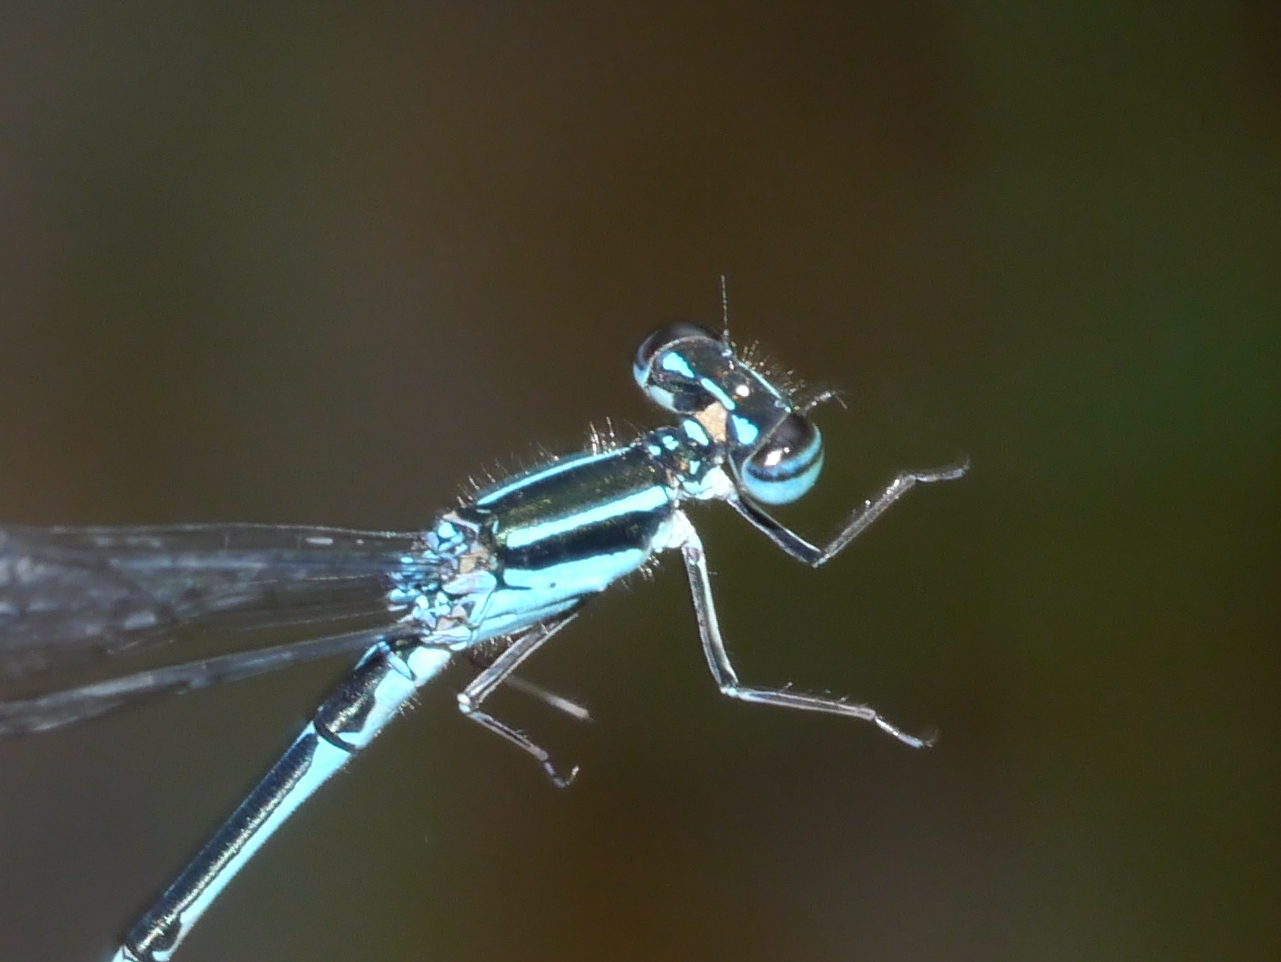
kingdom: Animalia
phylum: Arthropoda
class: Insecta
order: Odonata
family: Coenagrionidae
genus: Enallagma
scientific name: Enallagma exsulans
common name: Stream bluet
